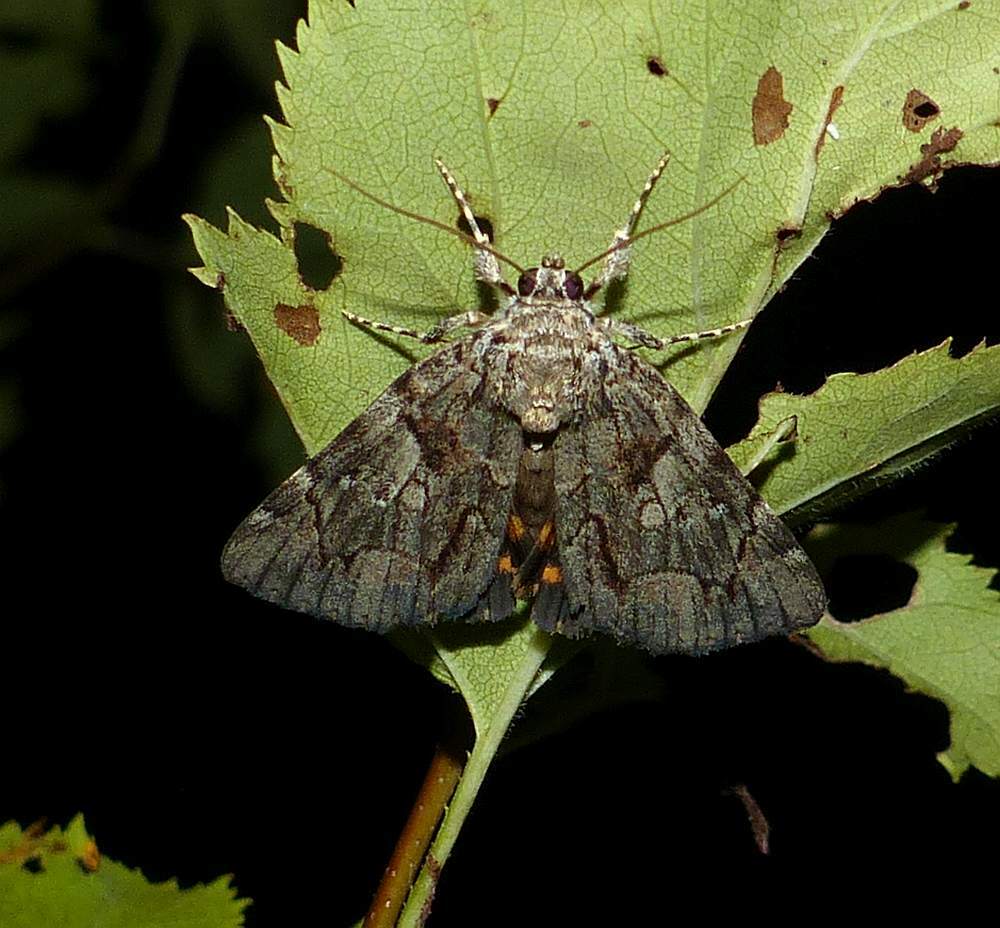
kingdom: Animalia
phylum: Arthropoda
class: Insecta
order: Lepidoptera
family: Erebidae
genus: Catocala
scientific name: Catocala mira
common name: Wonderful underwing
